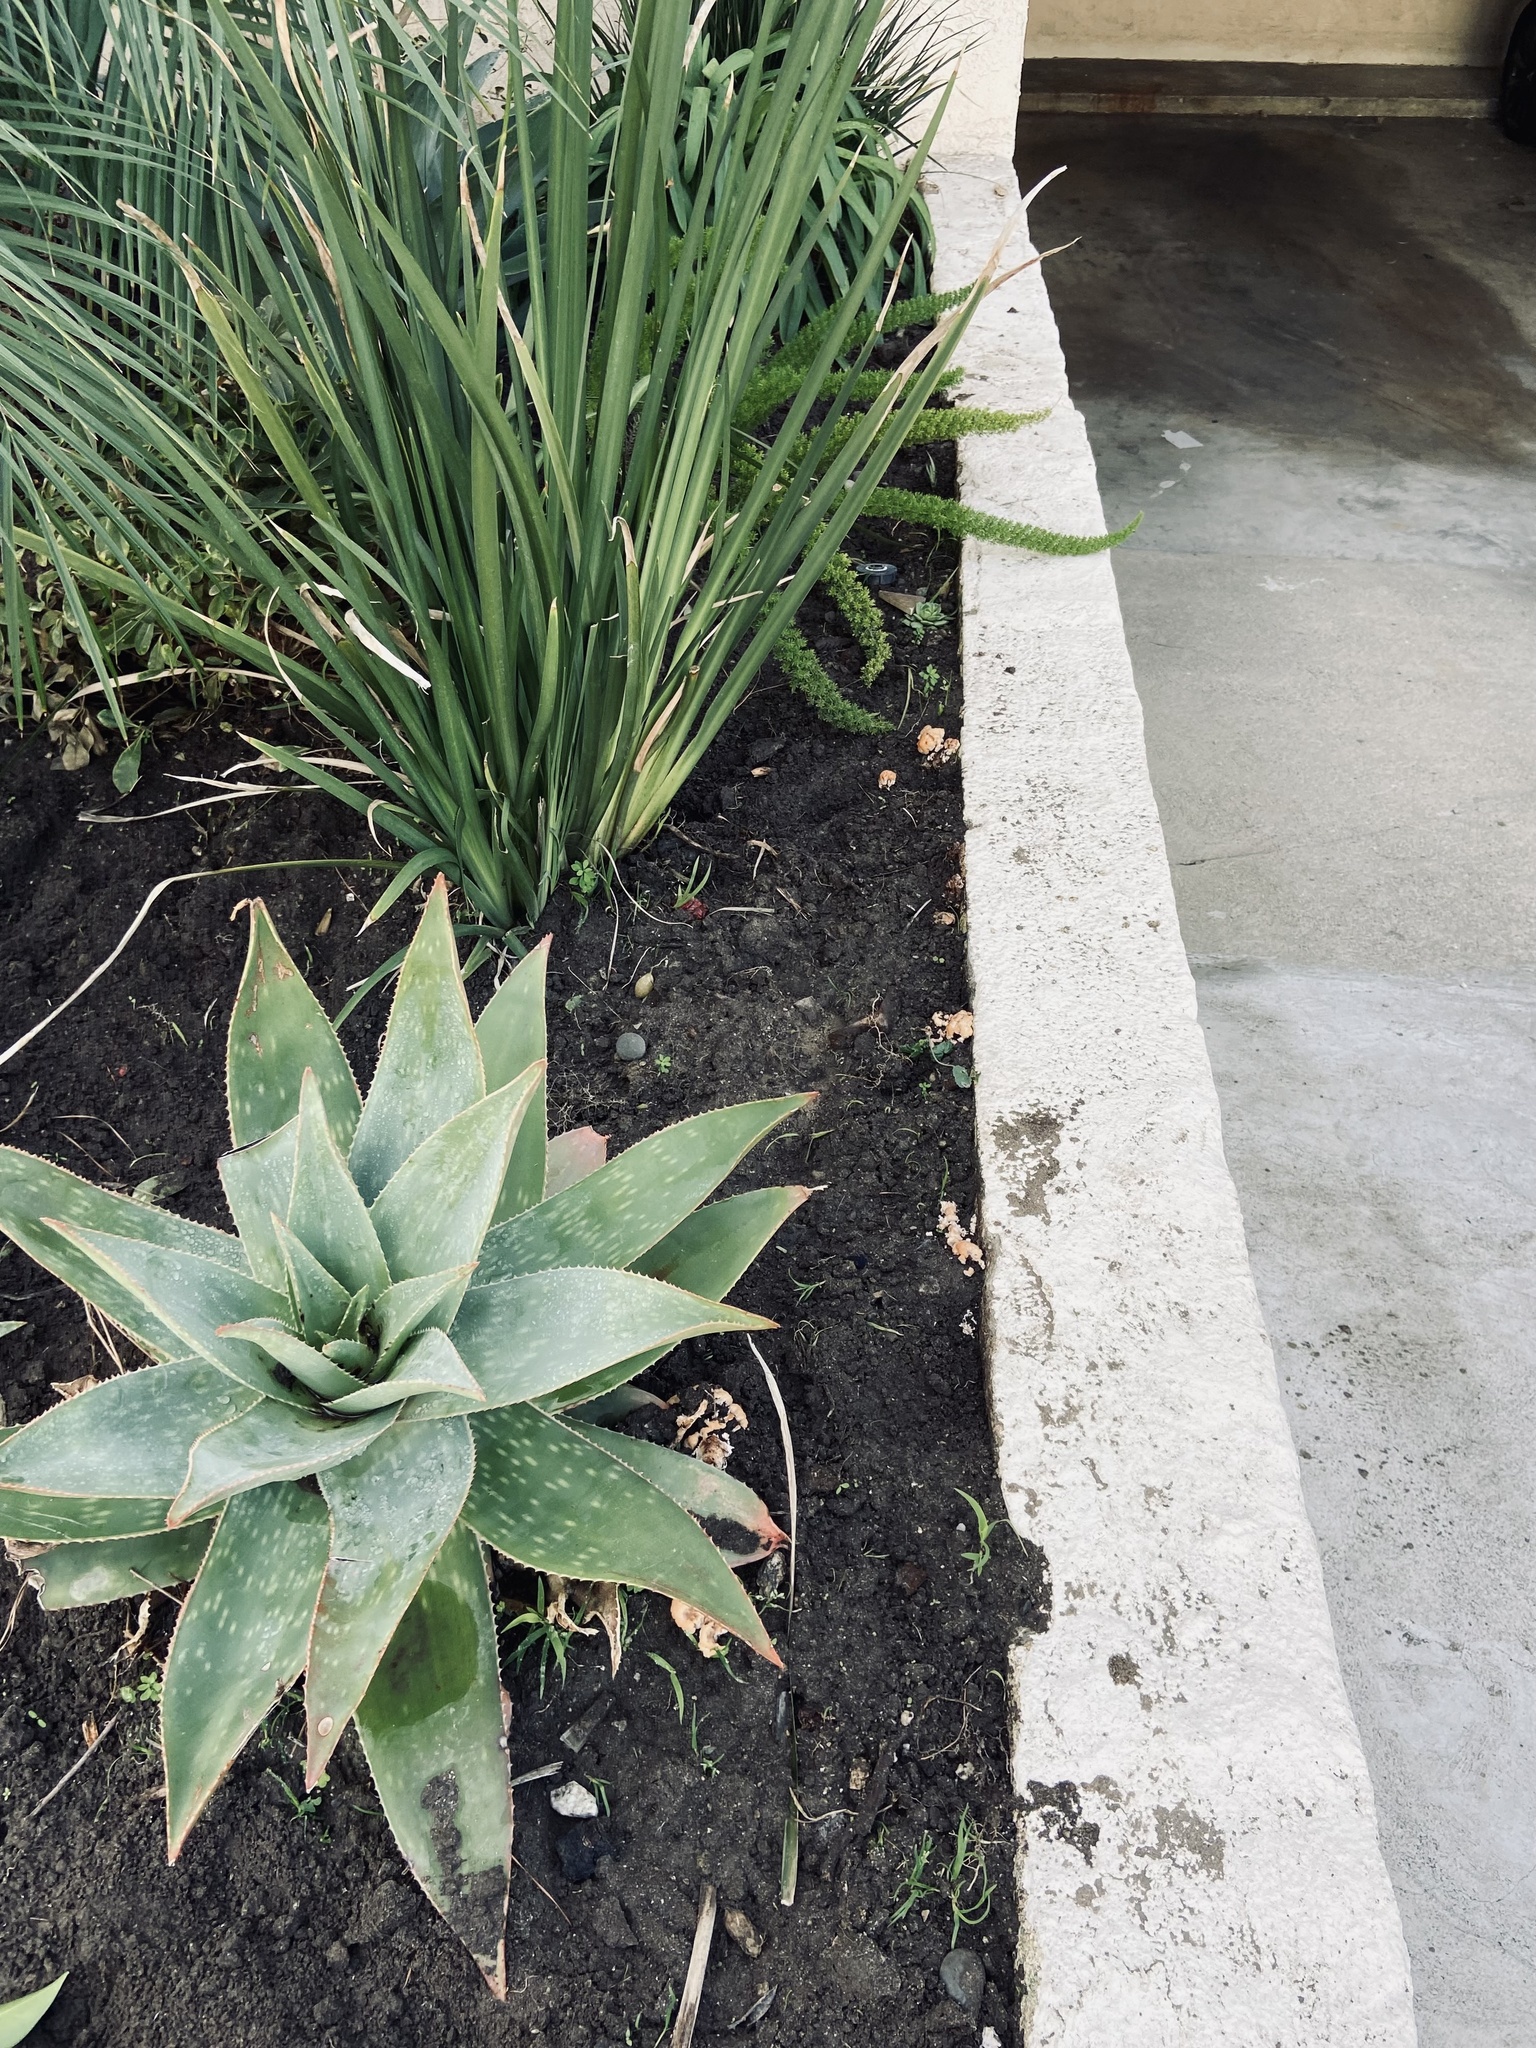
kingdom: Fungi
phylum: Basidiomycota
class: Agaricomycetes
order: Polyporales
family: Podoscyphaceae
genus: Abortiporus
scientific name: Abortiporus biennis
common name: Blushing rosette
